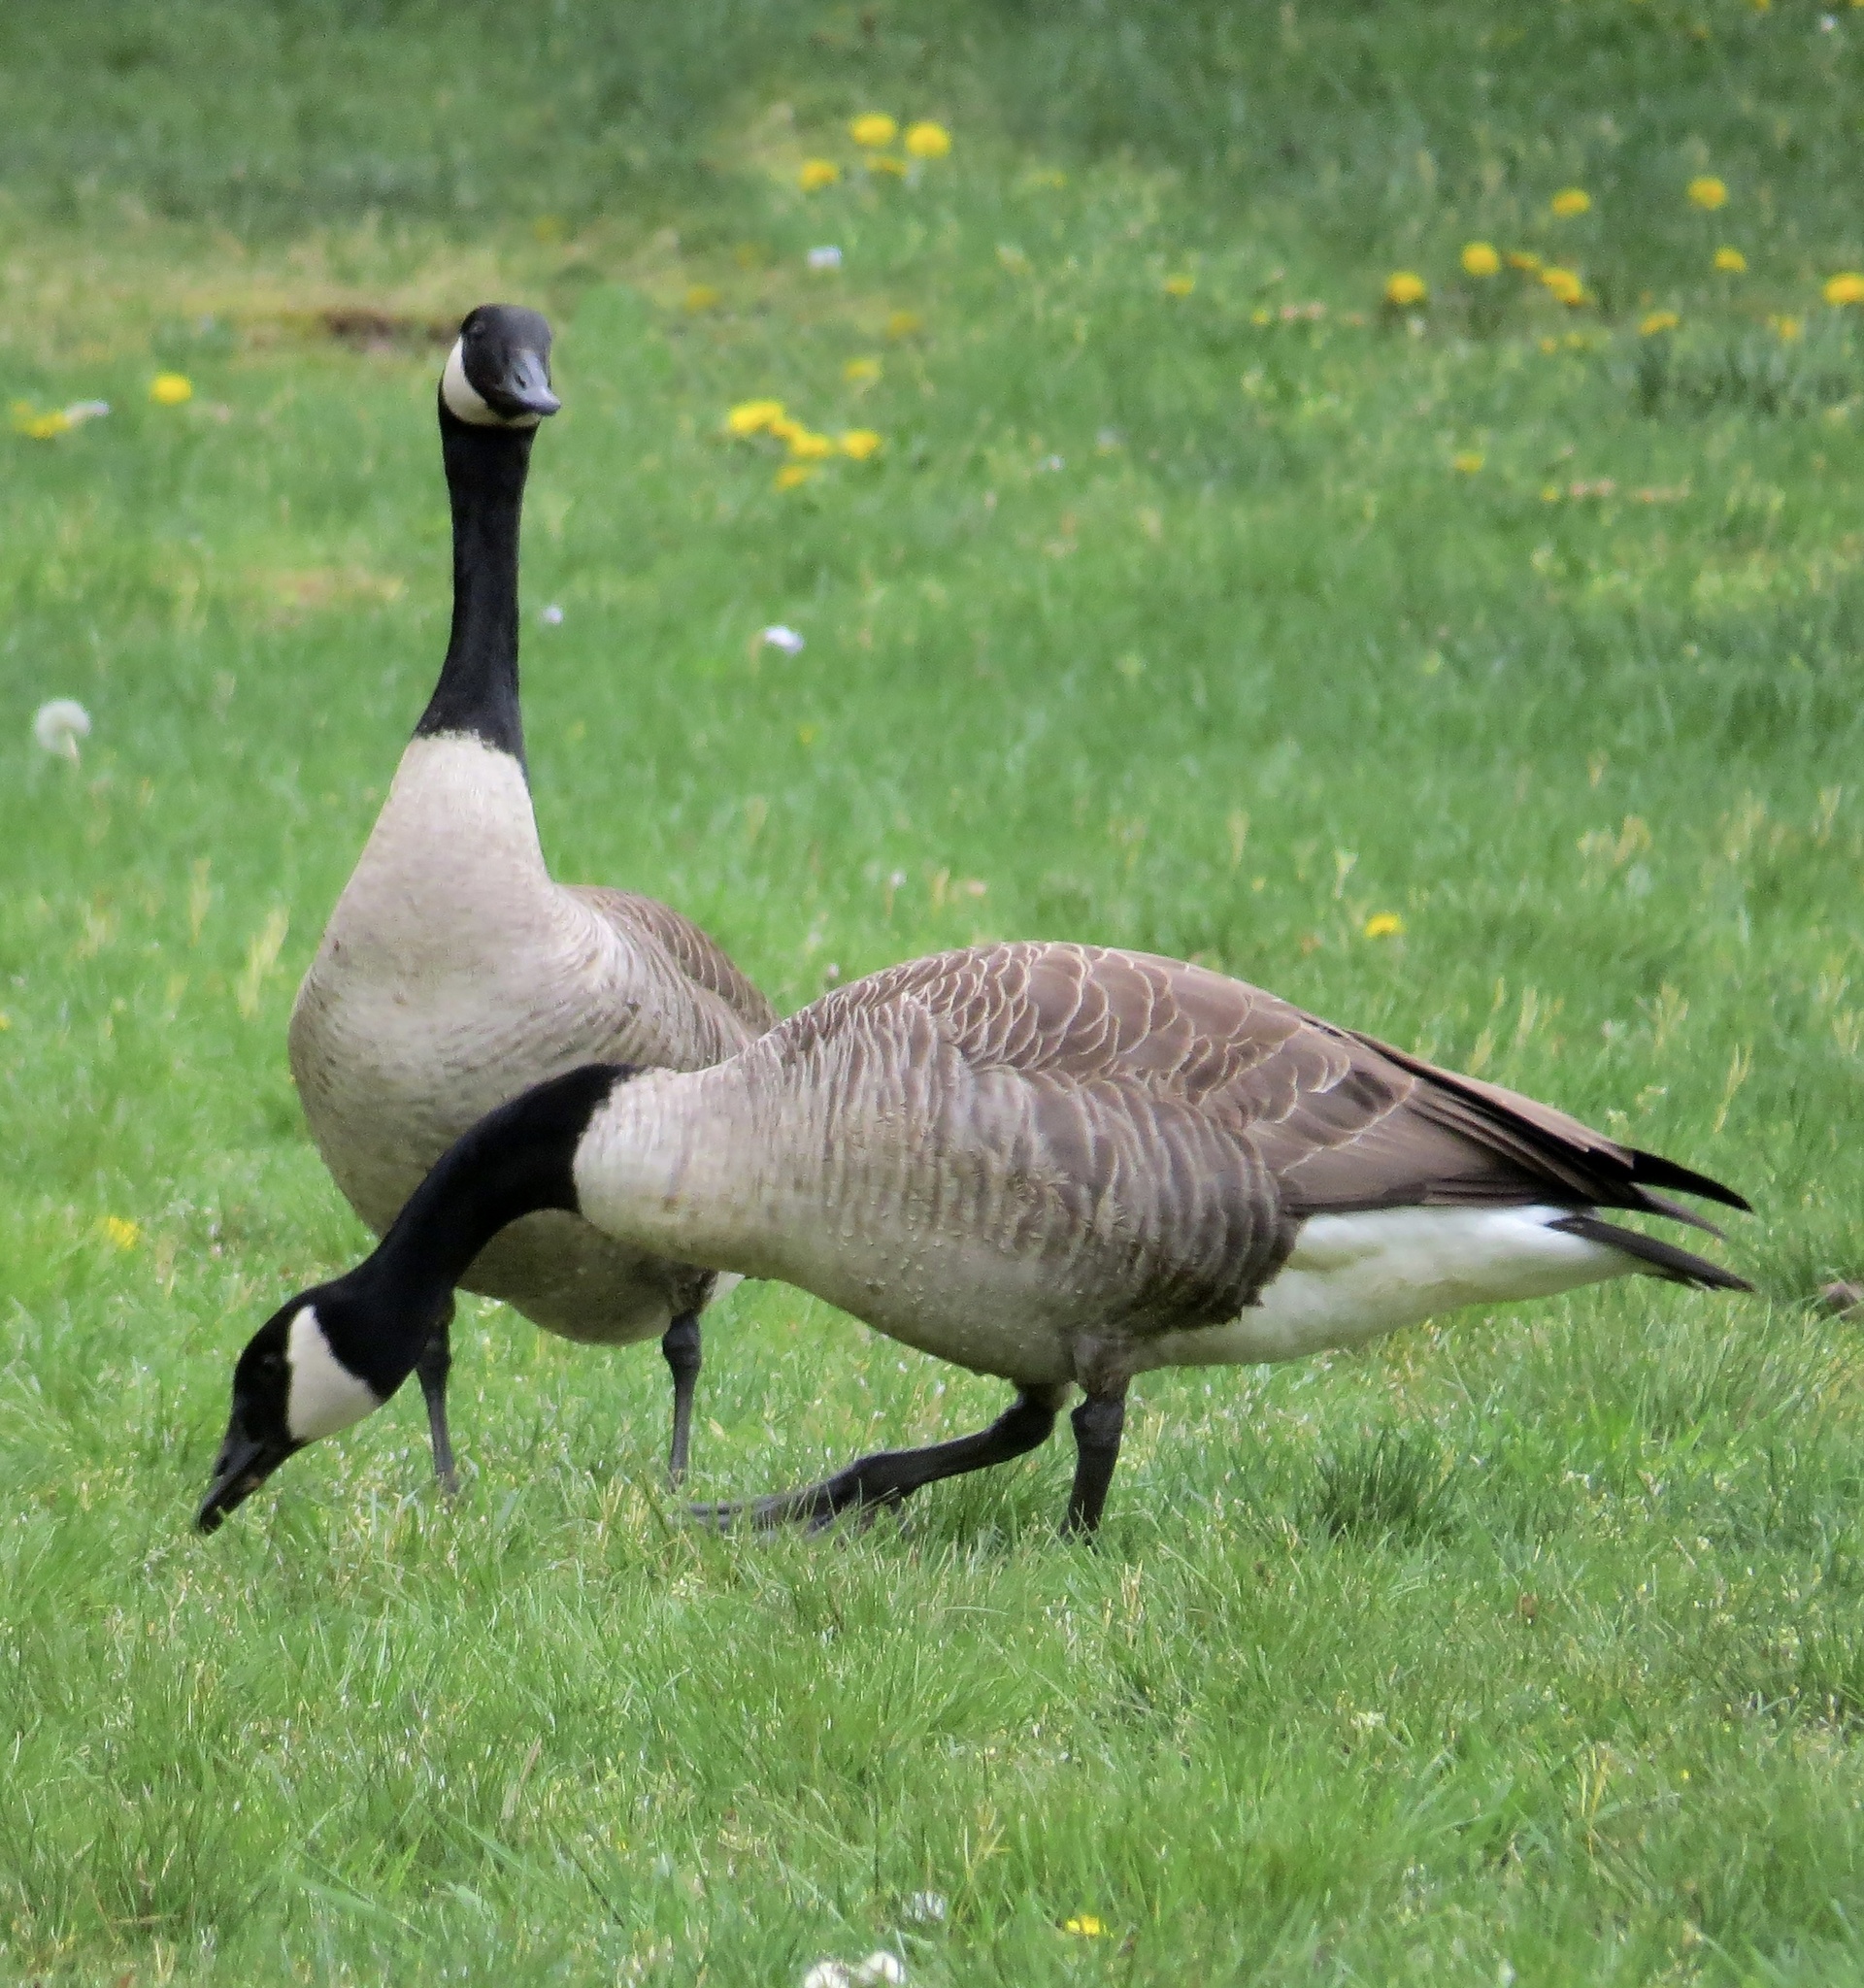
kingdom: Animalia
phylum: Chordata
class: Aves
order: Anseriformes
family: Anatidae
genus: Branta
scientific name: Branta canadensis
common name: Canada goose
